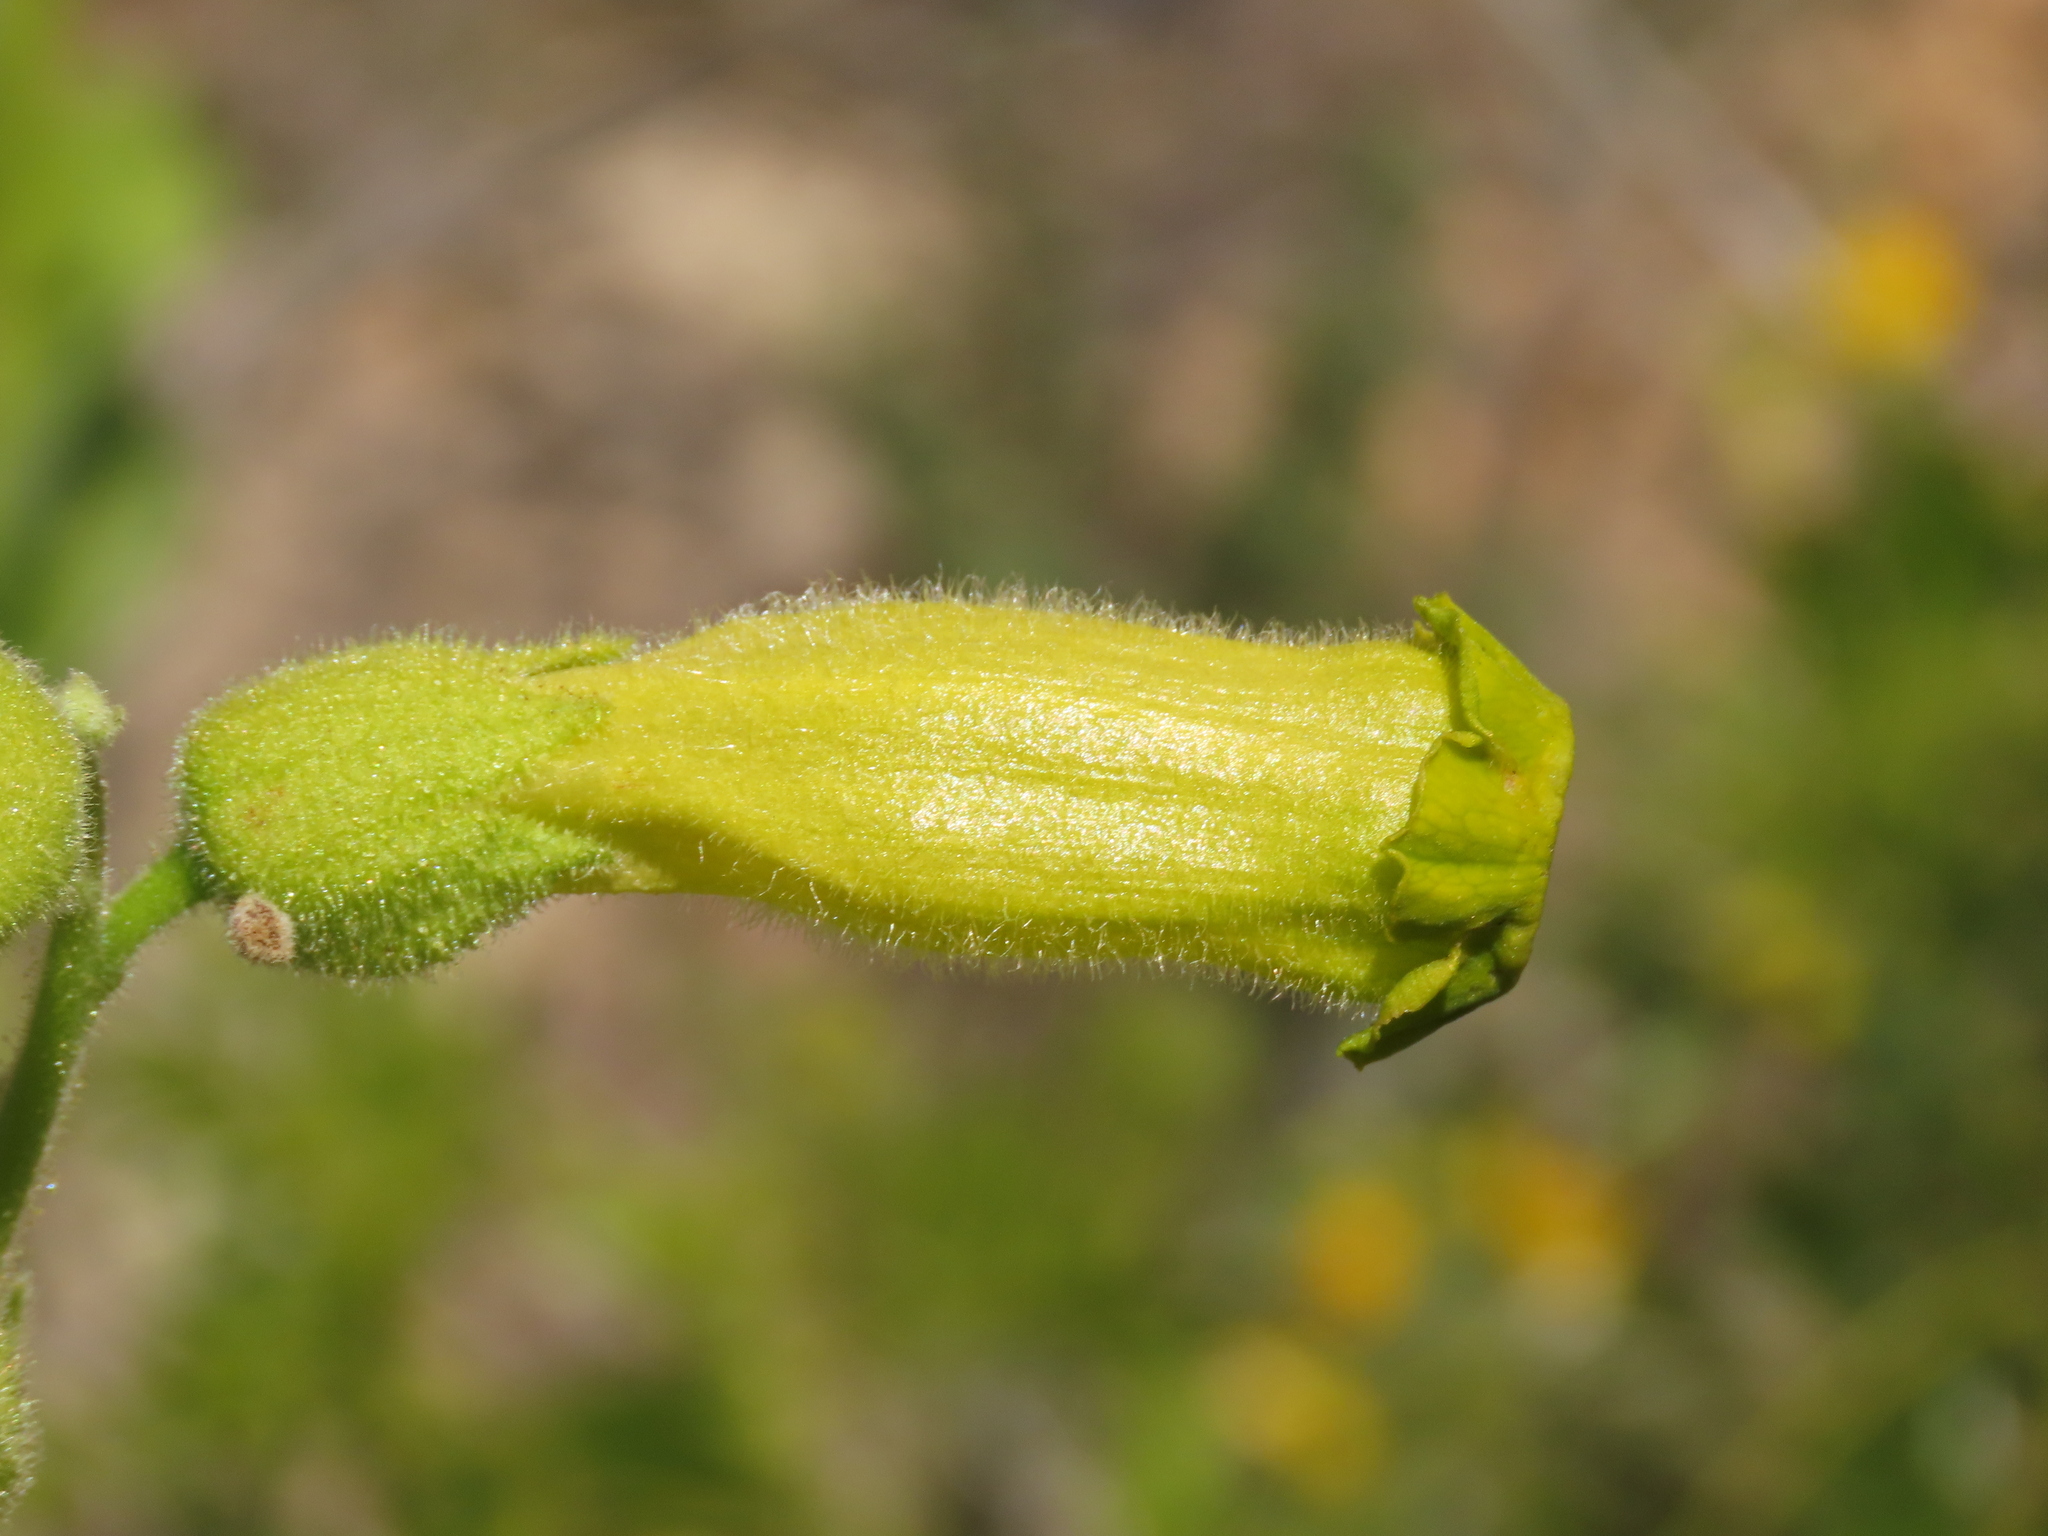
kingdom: Plantae
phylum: Tracheophyta
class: Magnoliopsida
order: Solanales
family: Solanaceae
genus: Nicotiana
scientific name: Nicotiana solanifolia
